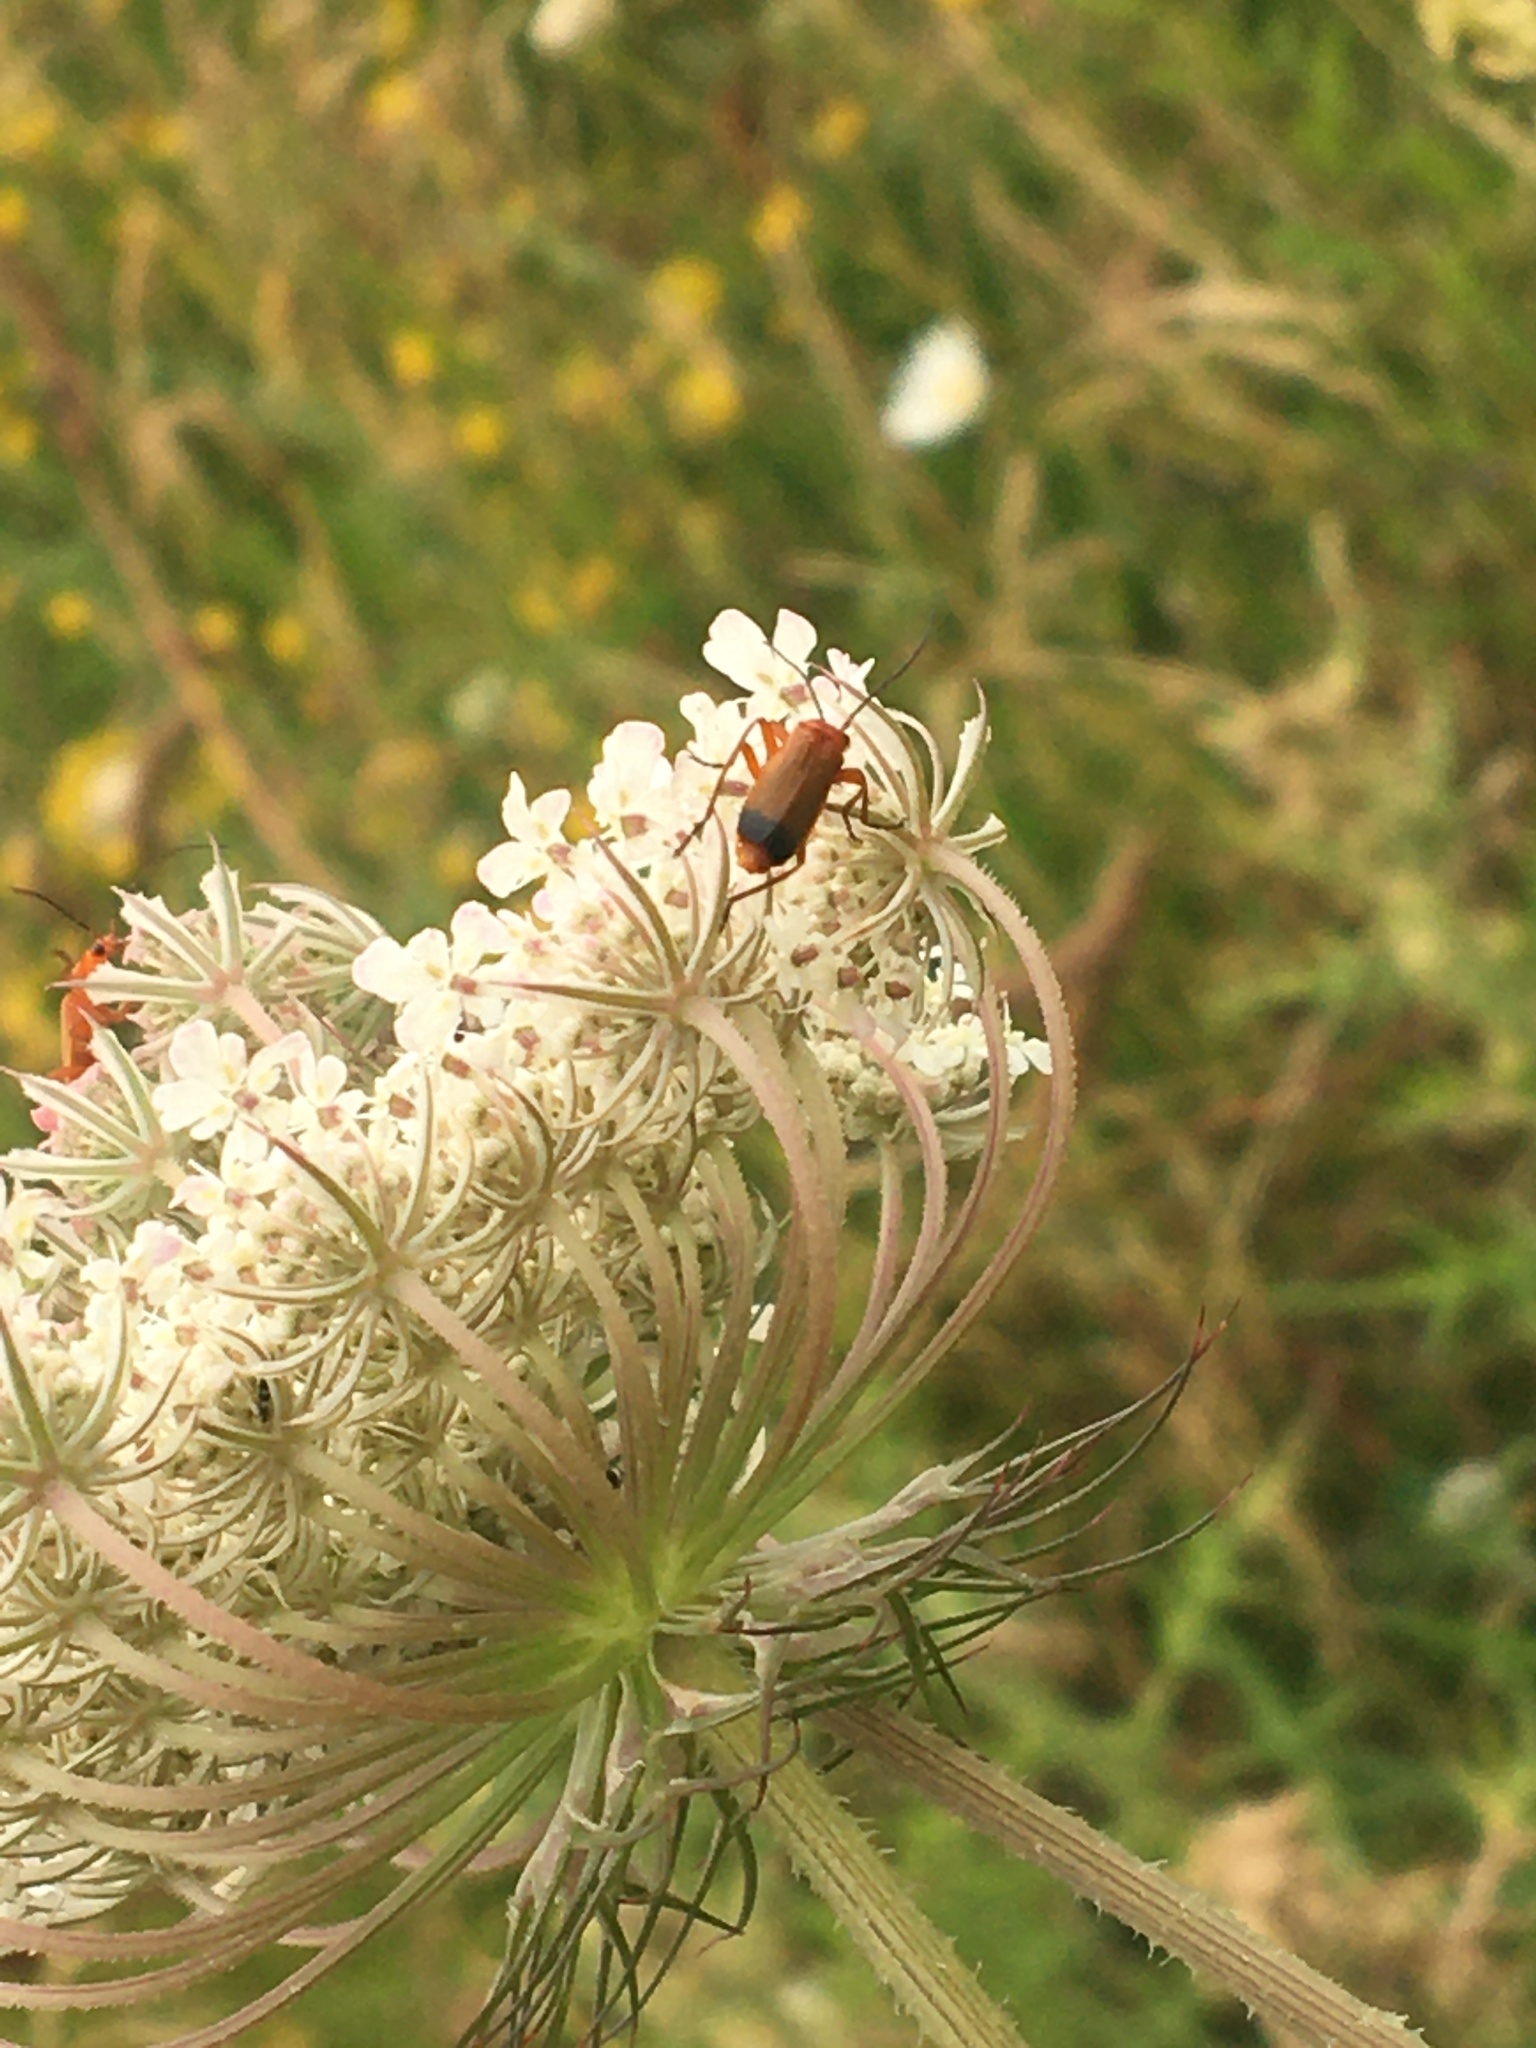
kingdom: Animalia
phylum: Arthropoda
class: Insecta
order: Coleoptera
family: Cantharidae
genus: Rhagonycha
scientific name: Rhagonycha fulva
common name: Common red soldier beetle
